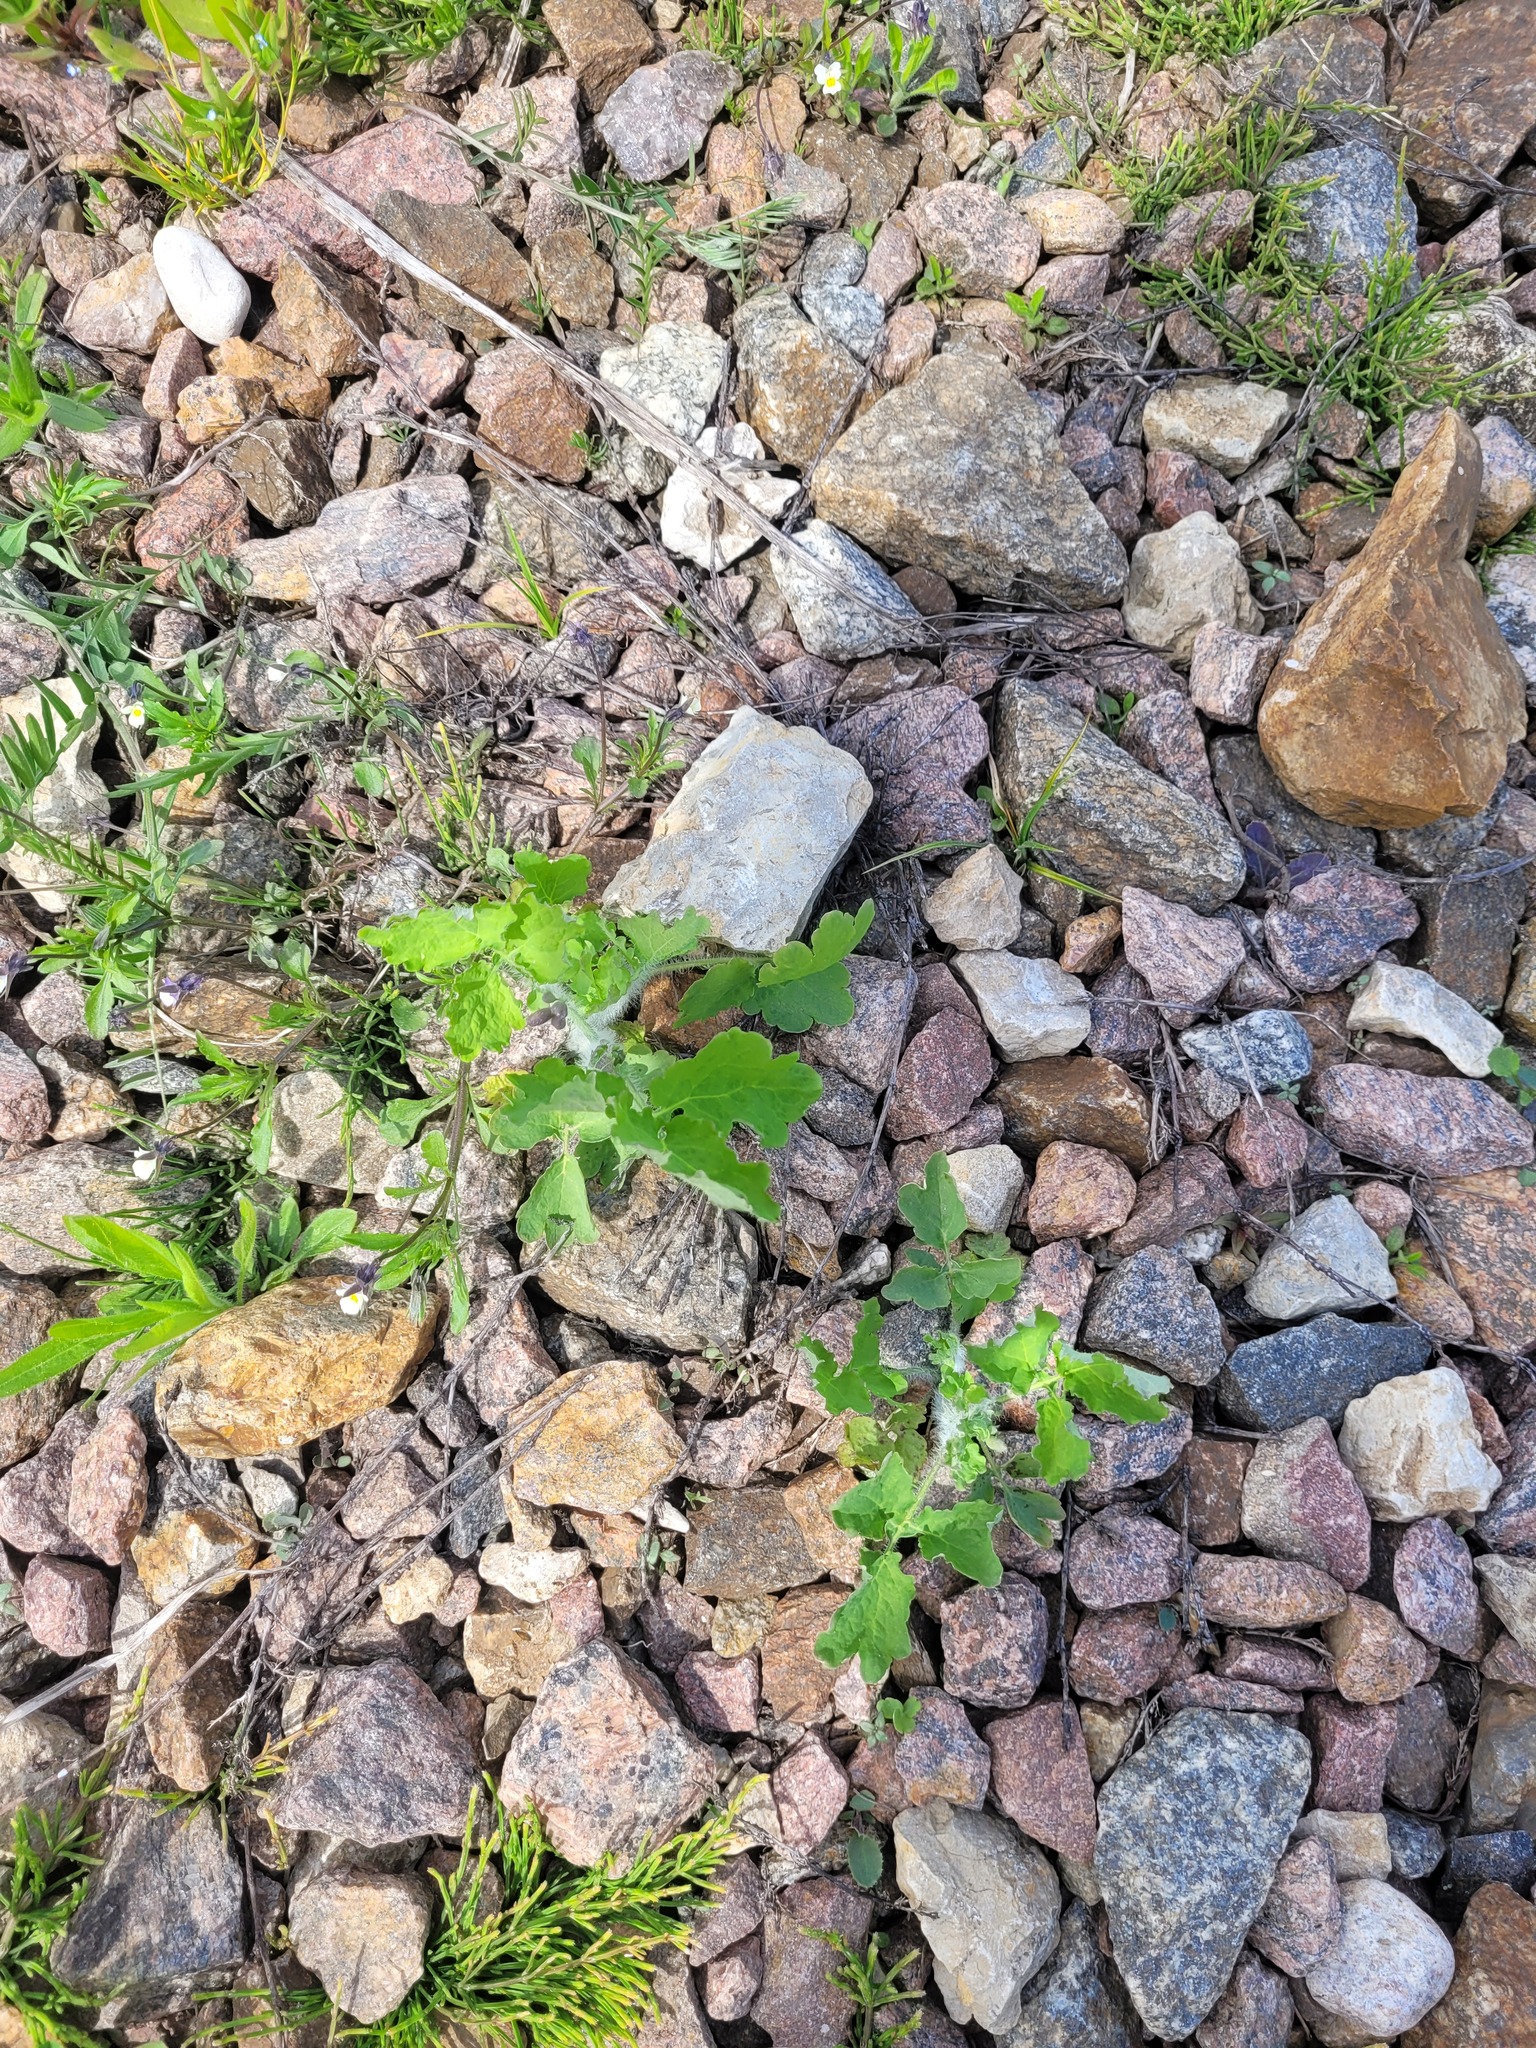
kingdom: Plantae
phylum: Tracheophyta
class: Magnoliopsida
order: Ranunculales
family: Papaveraceae
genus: Chelidonium
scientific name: Chelidonium majus
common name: Greater celandine
